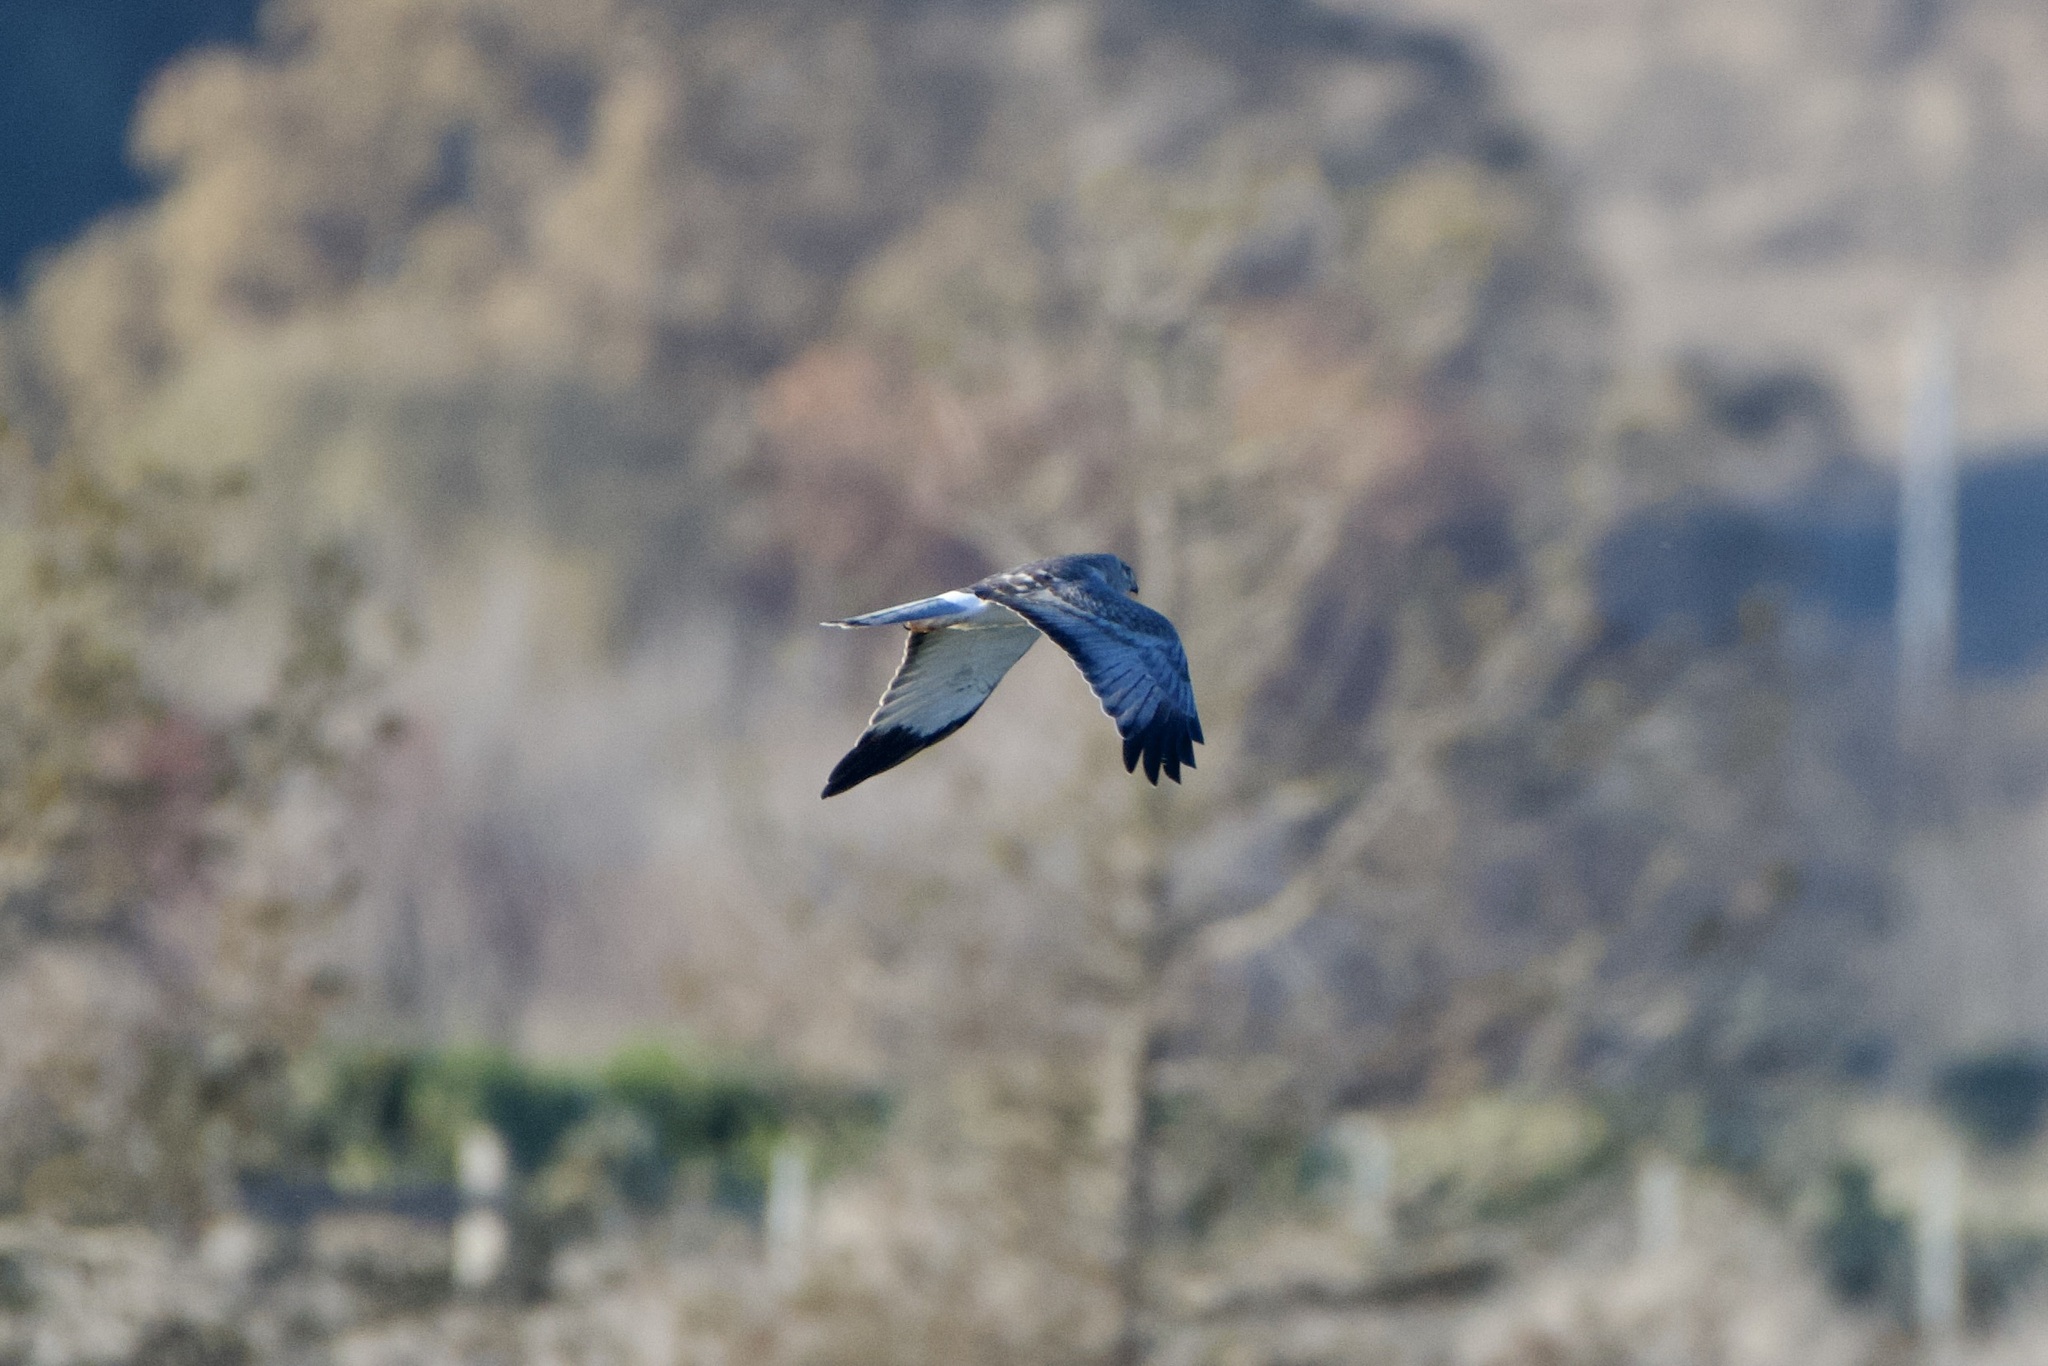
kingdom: Animalia
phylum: Chordata
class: Aves
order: Accipitriformes
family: Accipitridae
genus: Circus
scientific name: Circus cyaneus
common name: Hen harrier
